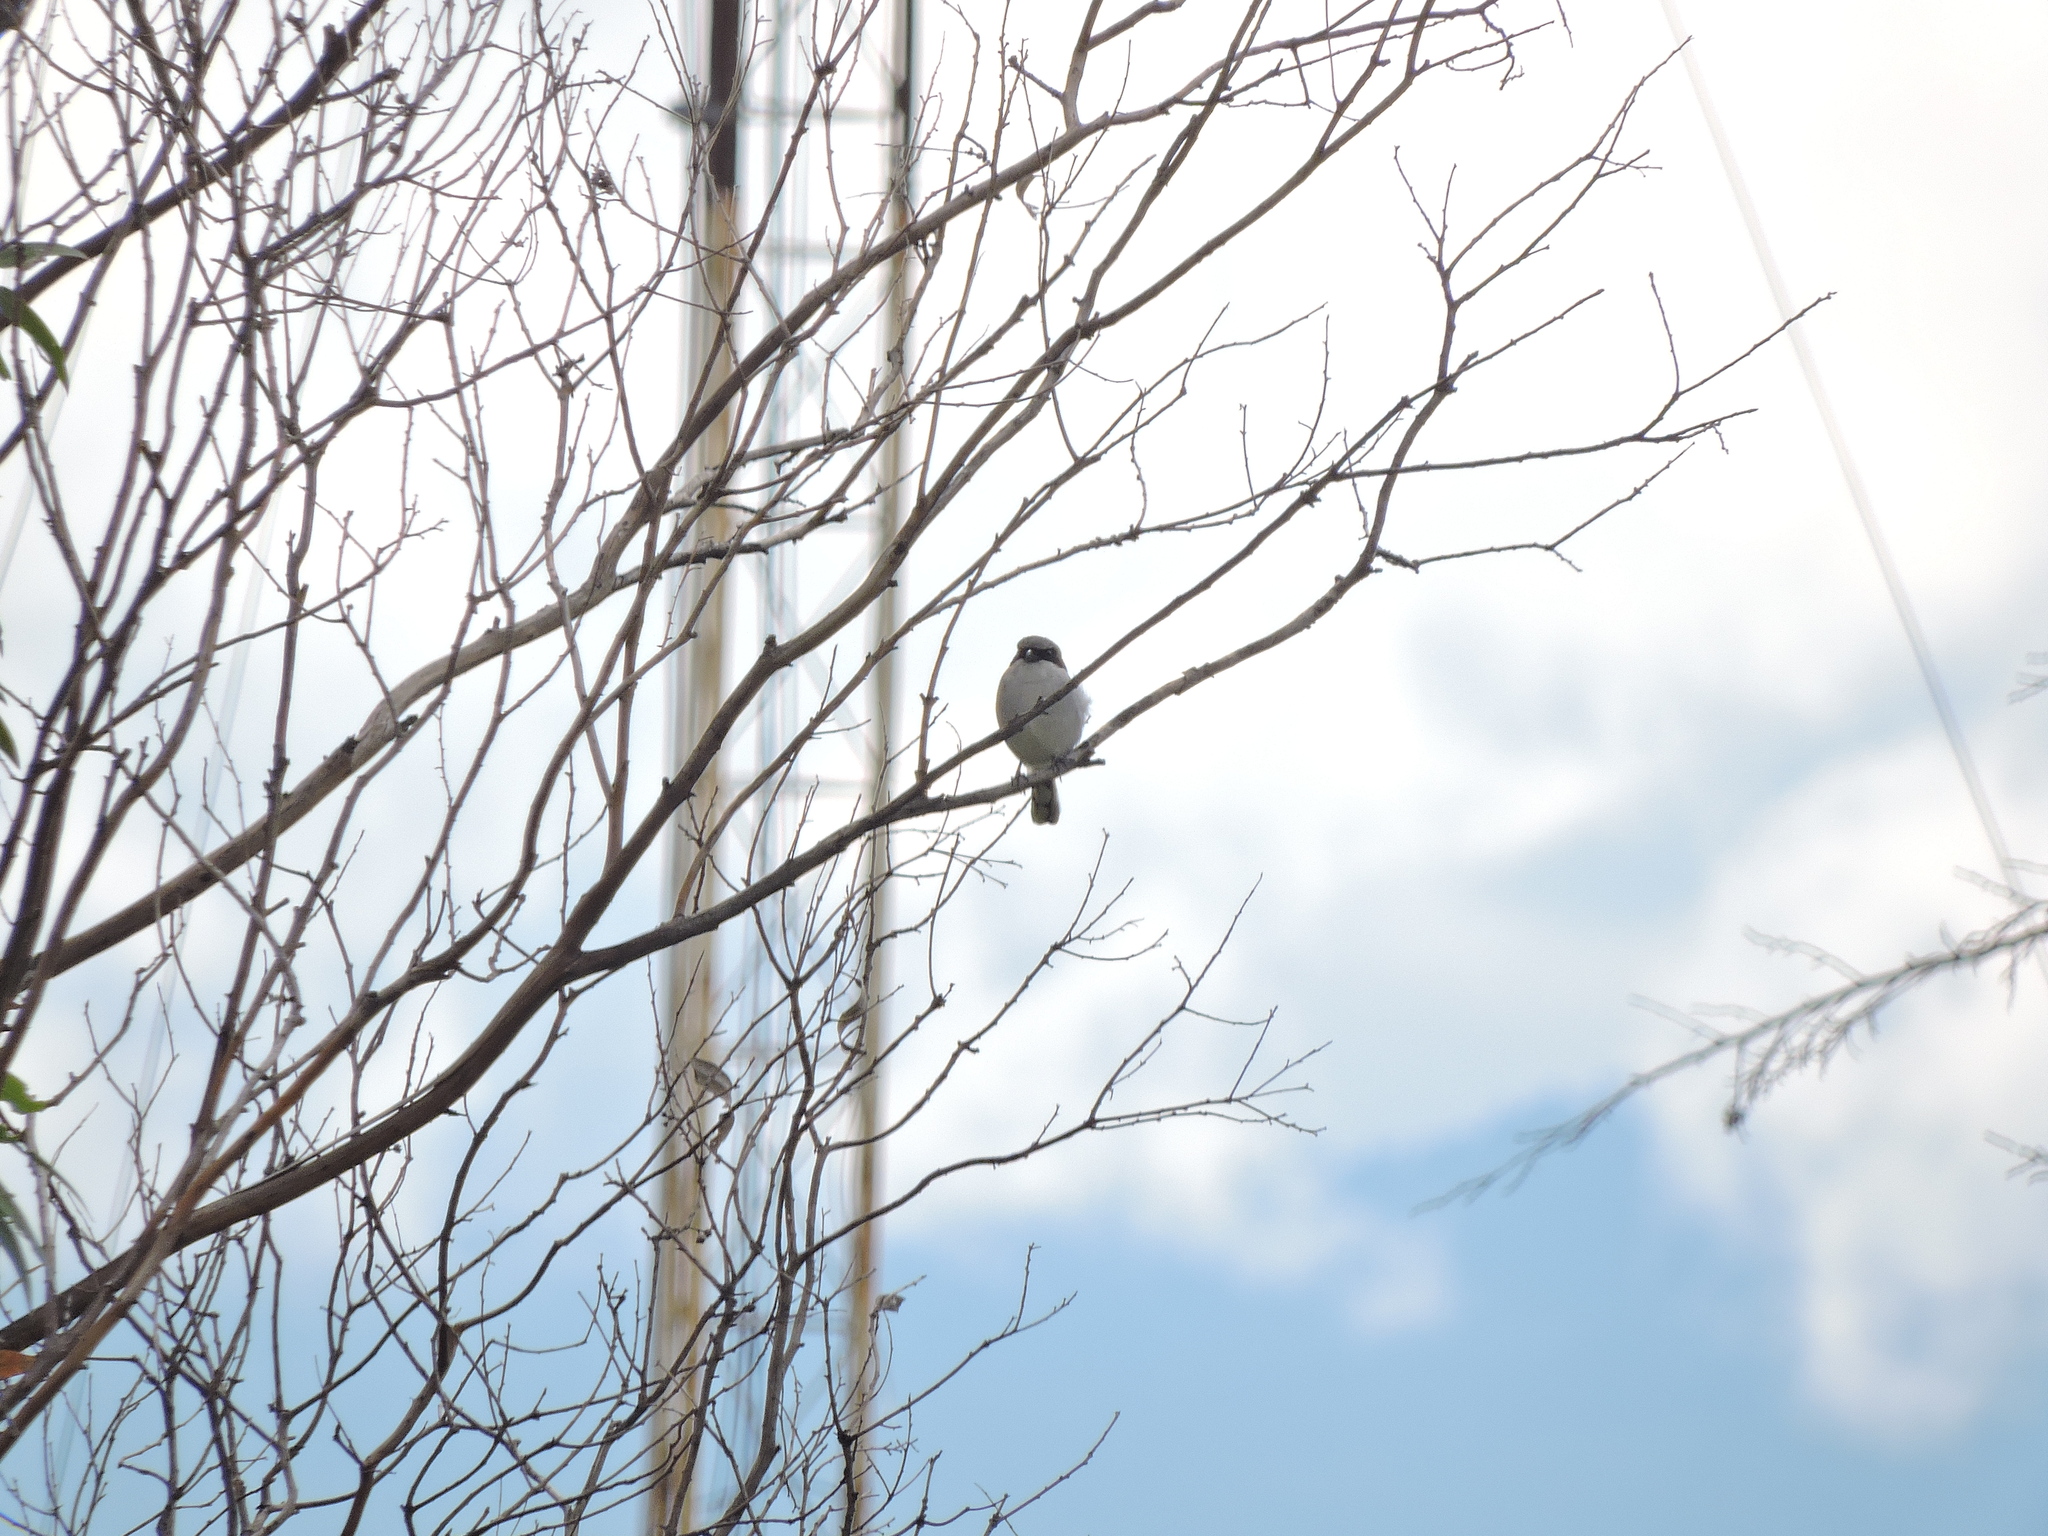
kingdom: Animalia
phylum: Chordata
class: Aves
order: Passeriformes
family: Laniidae
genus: Lanius
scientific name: Lanius ludovicianus
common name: Loggerhead shrike
